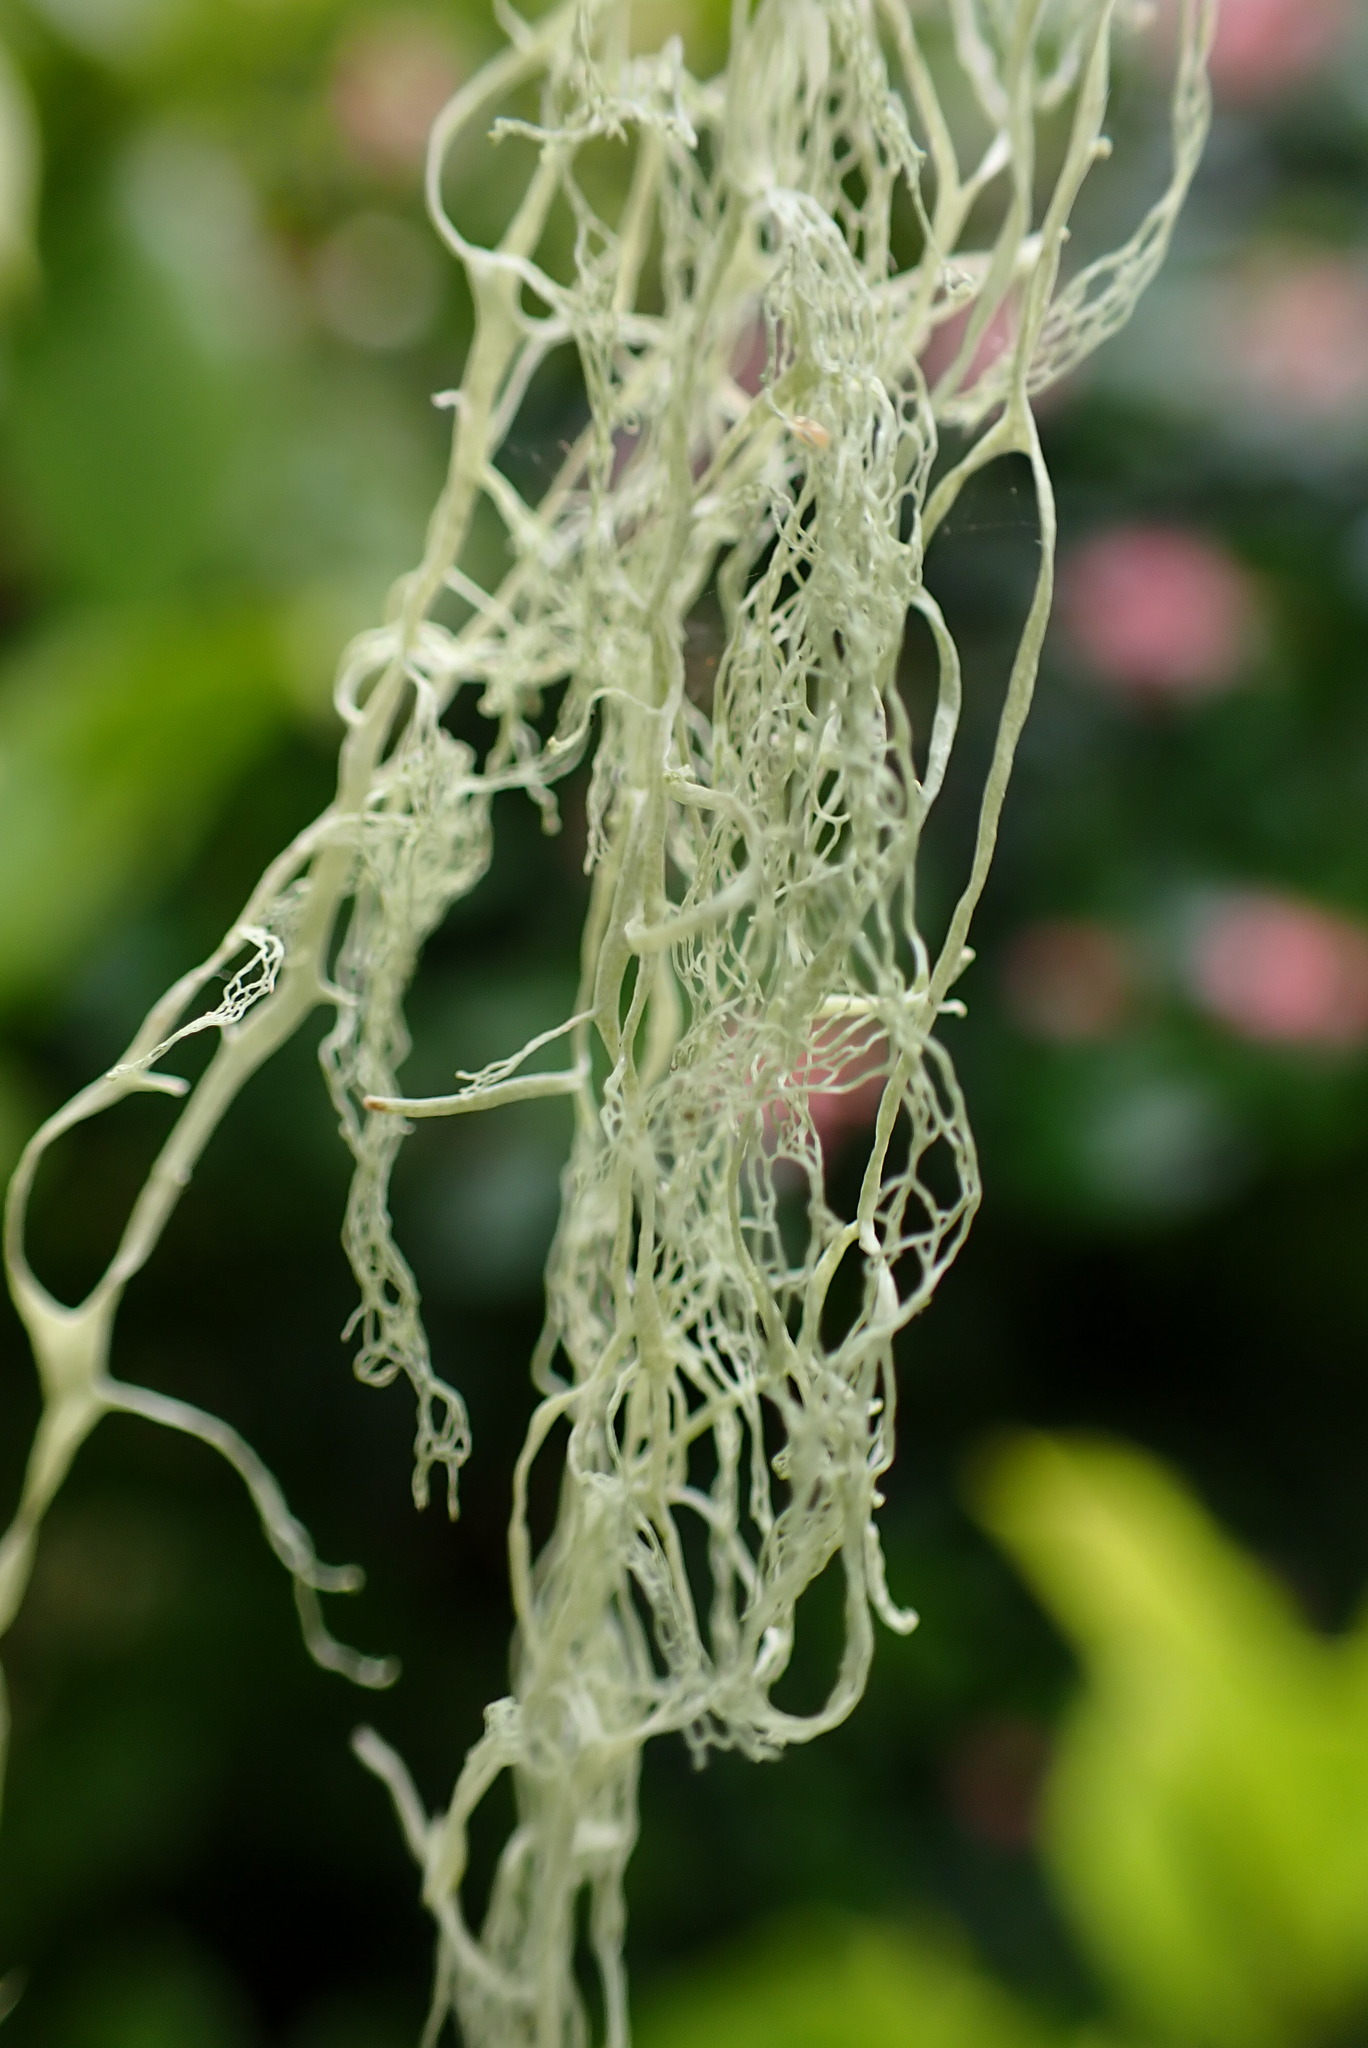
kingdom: Fungi
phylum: Ascomycota
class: Lecanoromycetes
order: Lecanorales
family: Ramalinaceae
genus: Ramalina
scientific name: Ramalina menziesii
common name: Lace lichen
